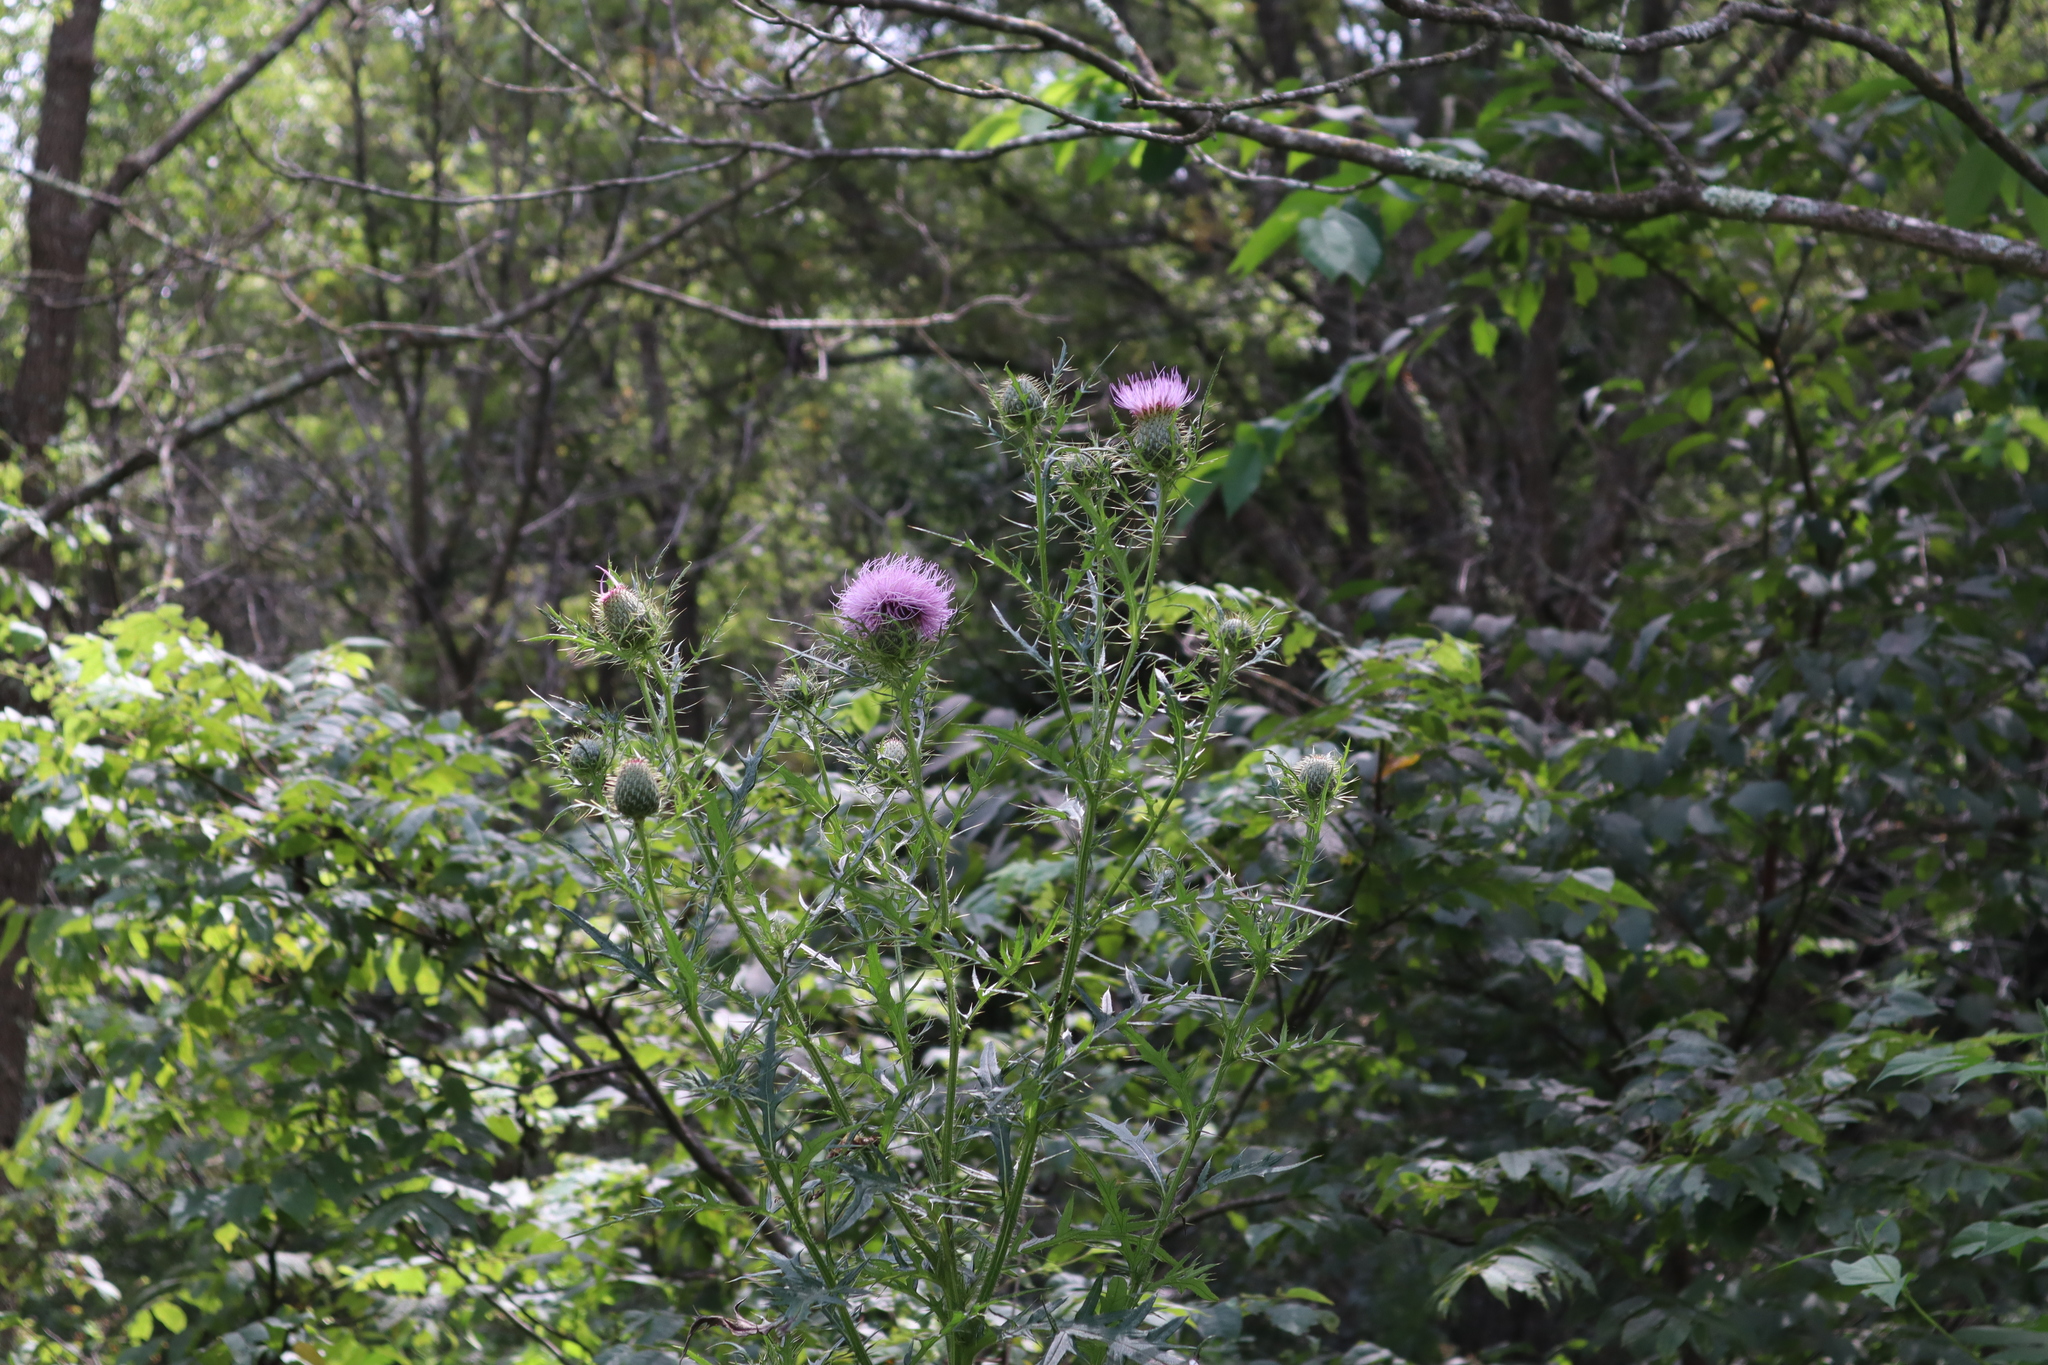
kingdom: Plantae
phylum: Tracheophyta
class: Magnoliopsida
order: Asterales
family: Asteraceae
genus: Cirsium
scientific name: Cirsium discolor
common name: Field thistle
